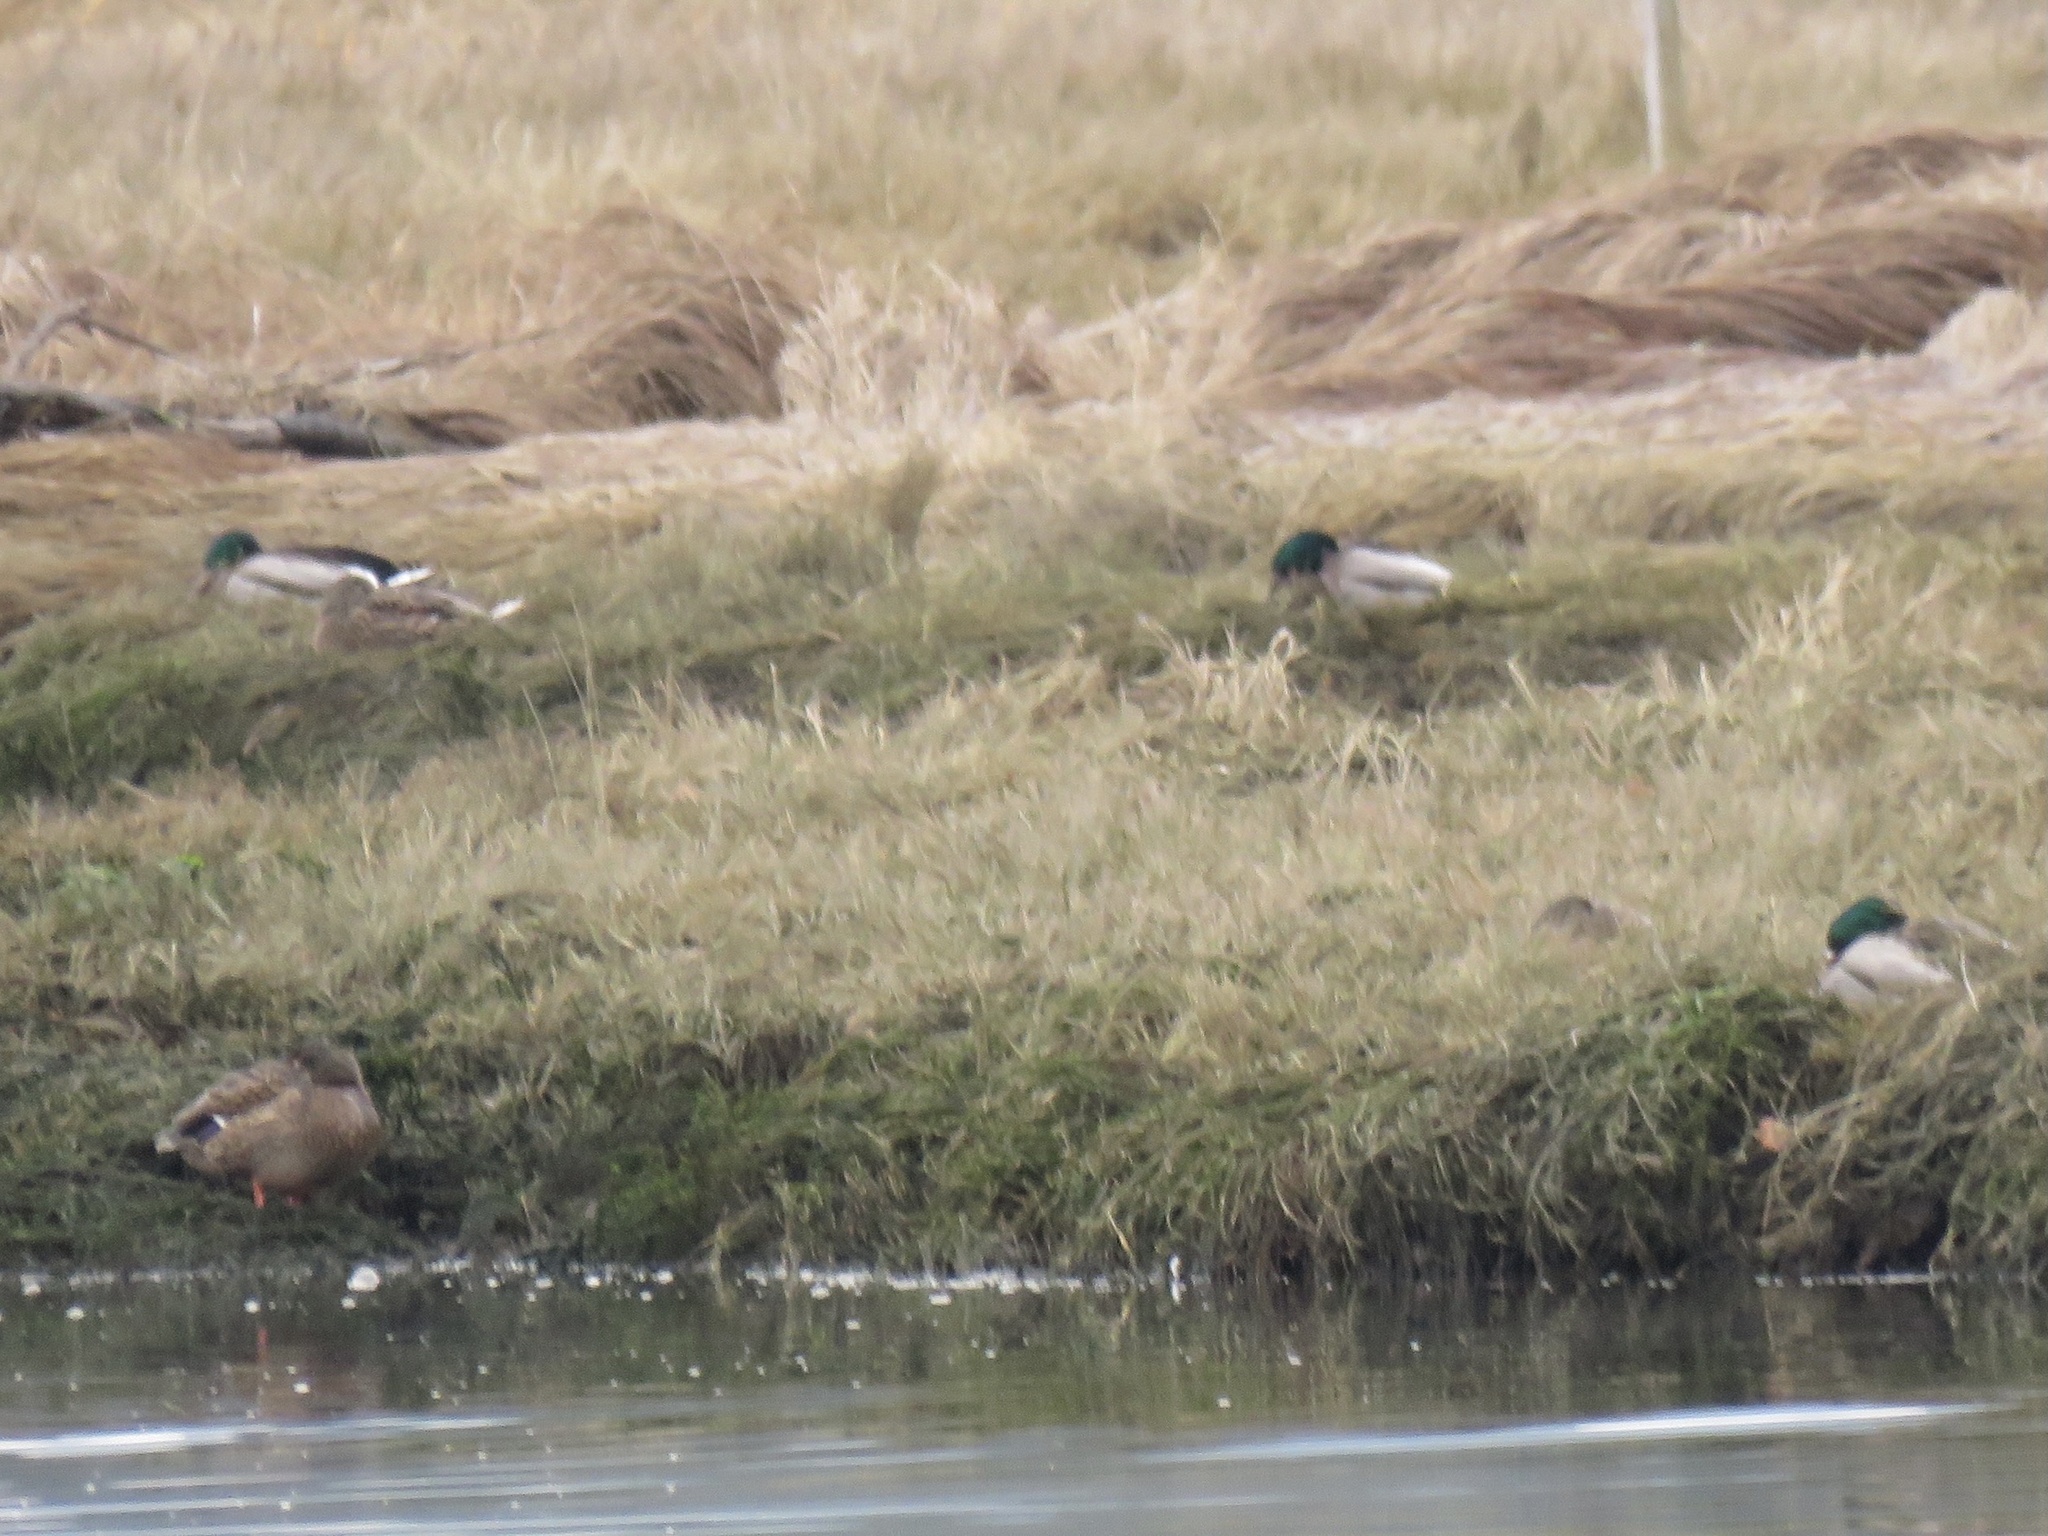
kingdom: Animalia
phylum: Chordata
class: Aves
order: Anseriformes
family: Anatidae
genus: Anas
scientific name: Anas platyrhynchos
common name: Mallard
